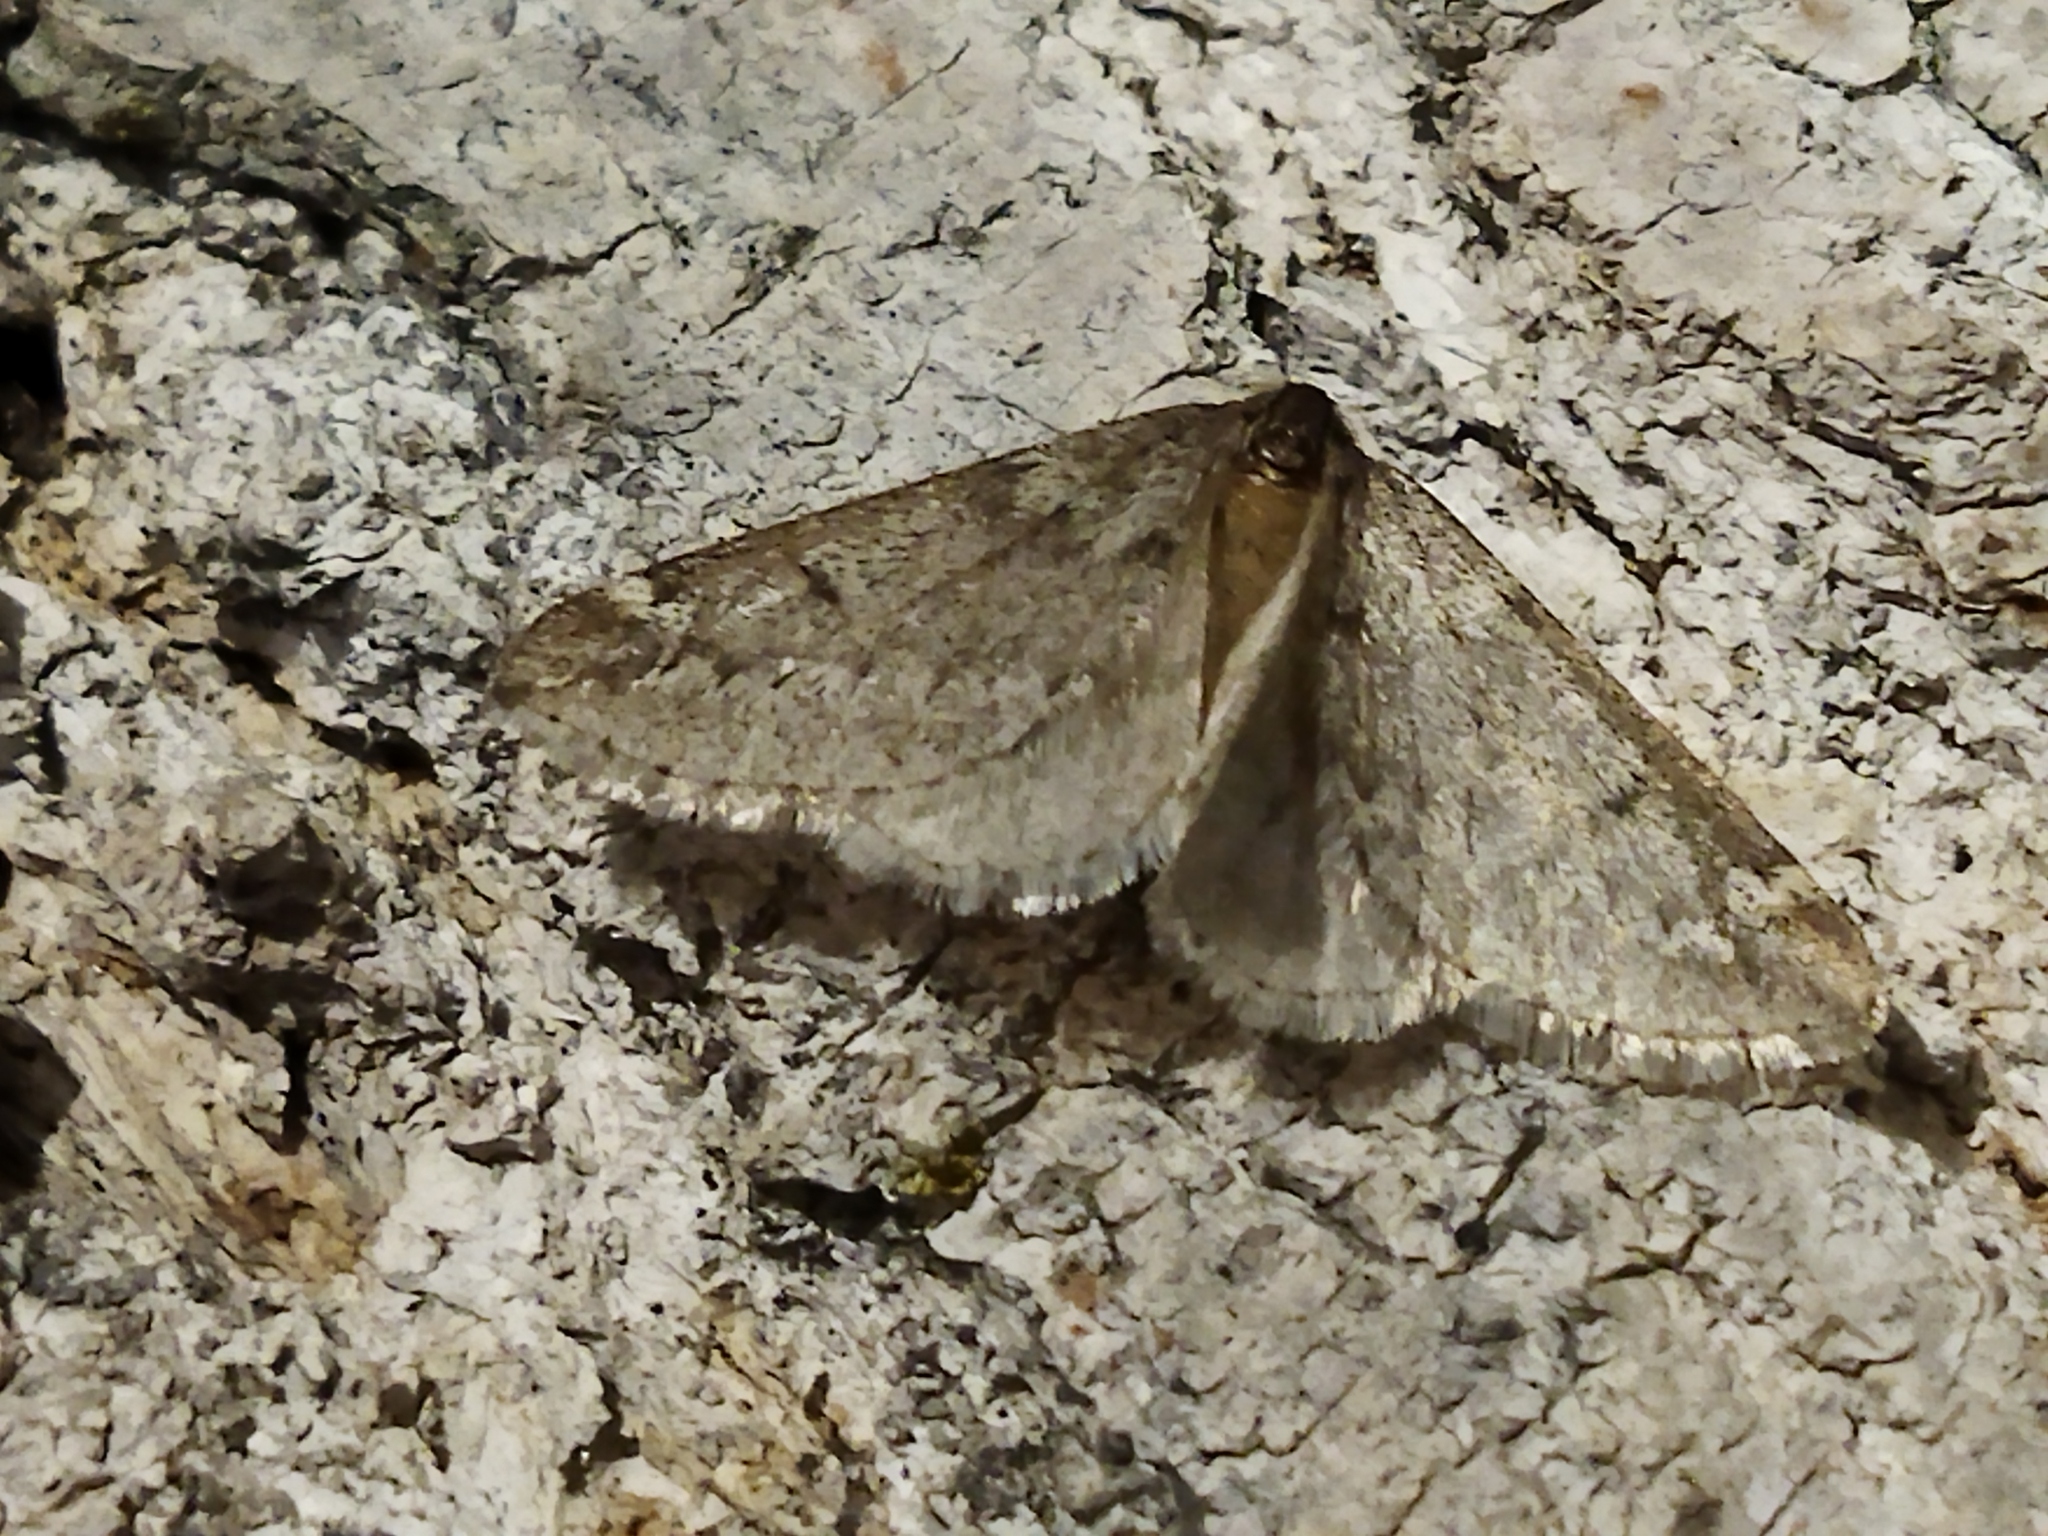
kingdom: Animalia
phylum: Arthropoda
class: Insecta
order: Lepidoptera
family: Geometridae
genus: Alsophila
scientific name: Alsophila aescularia
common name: March moth
